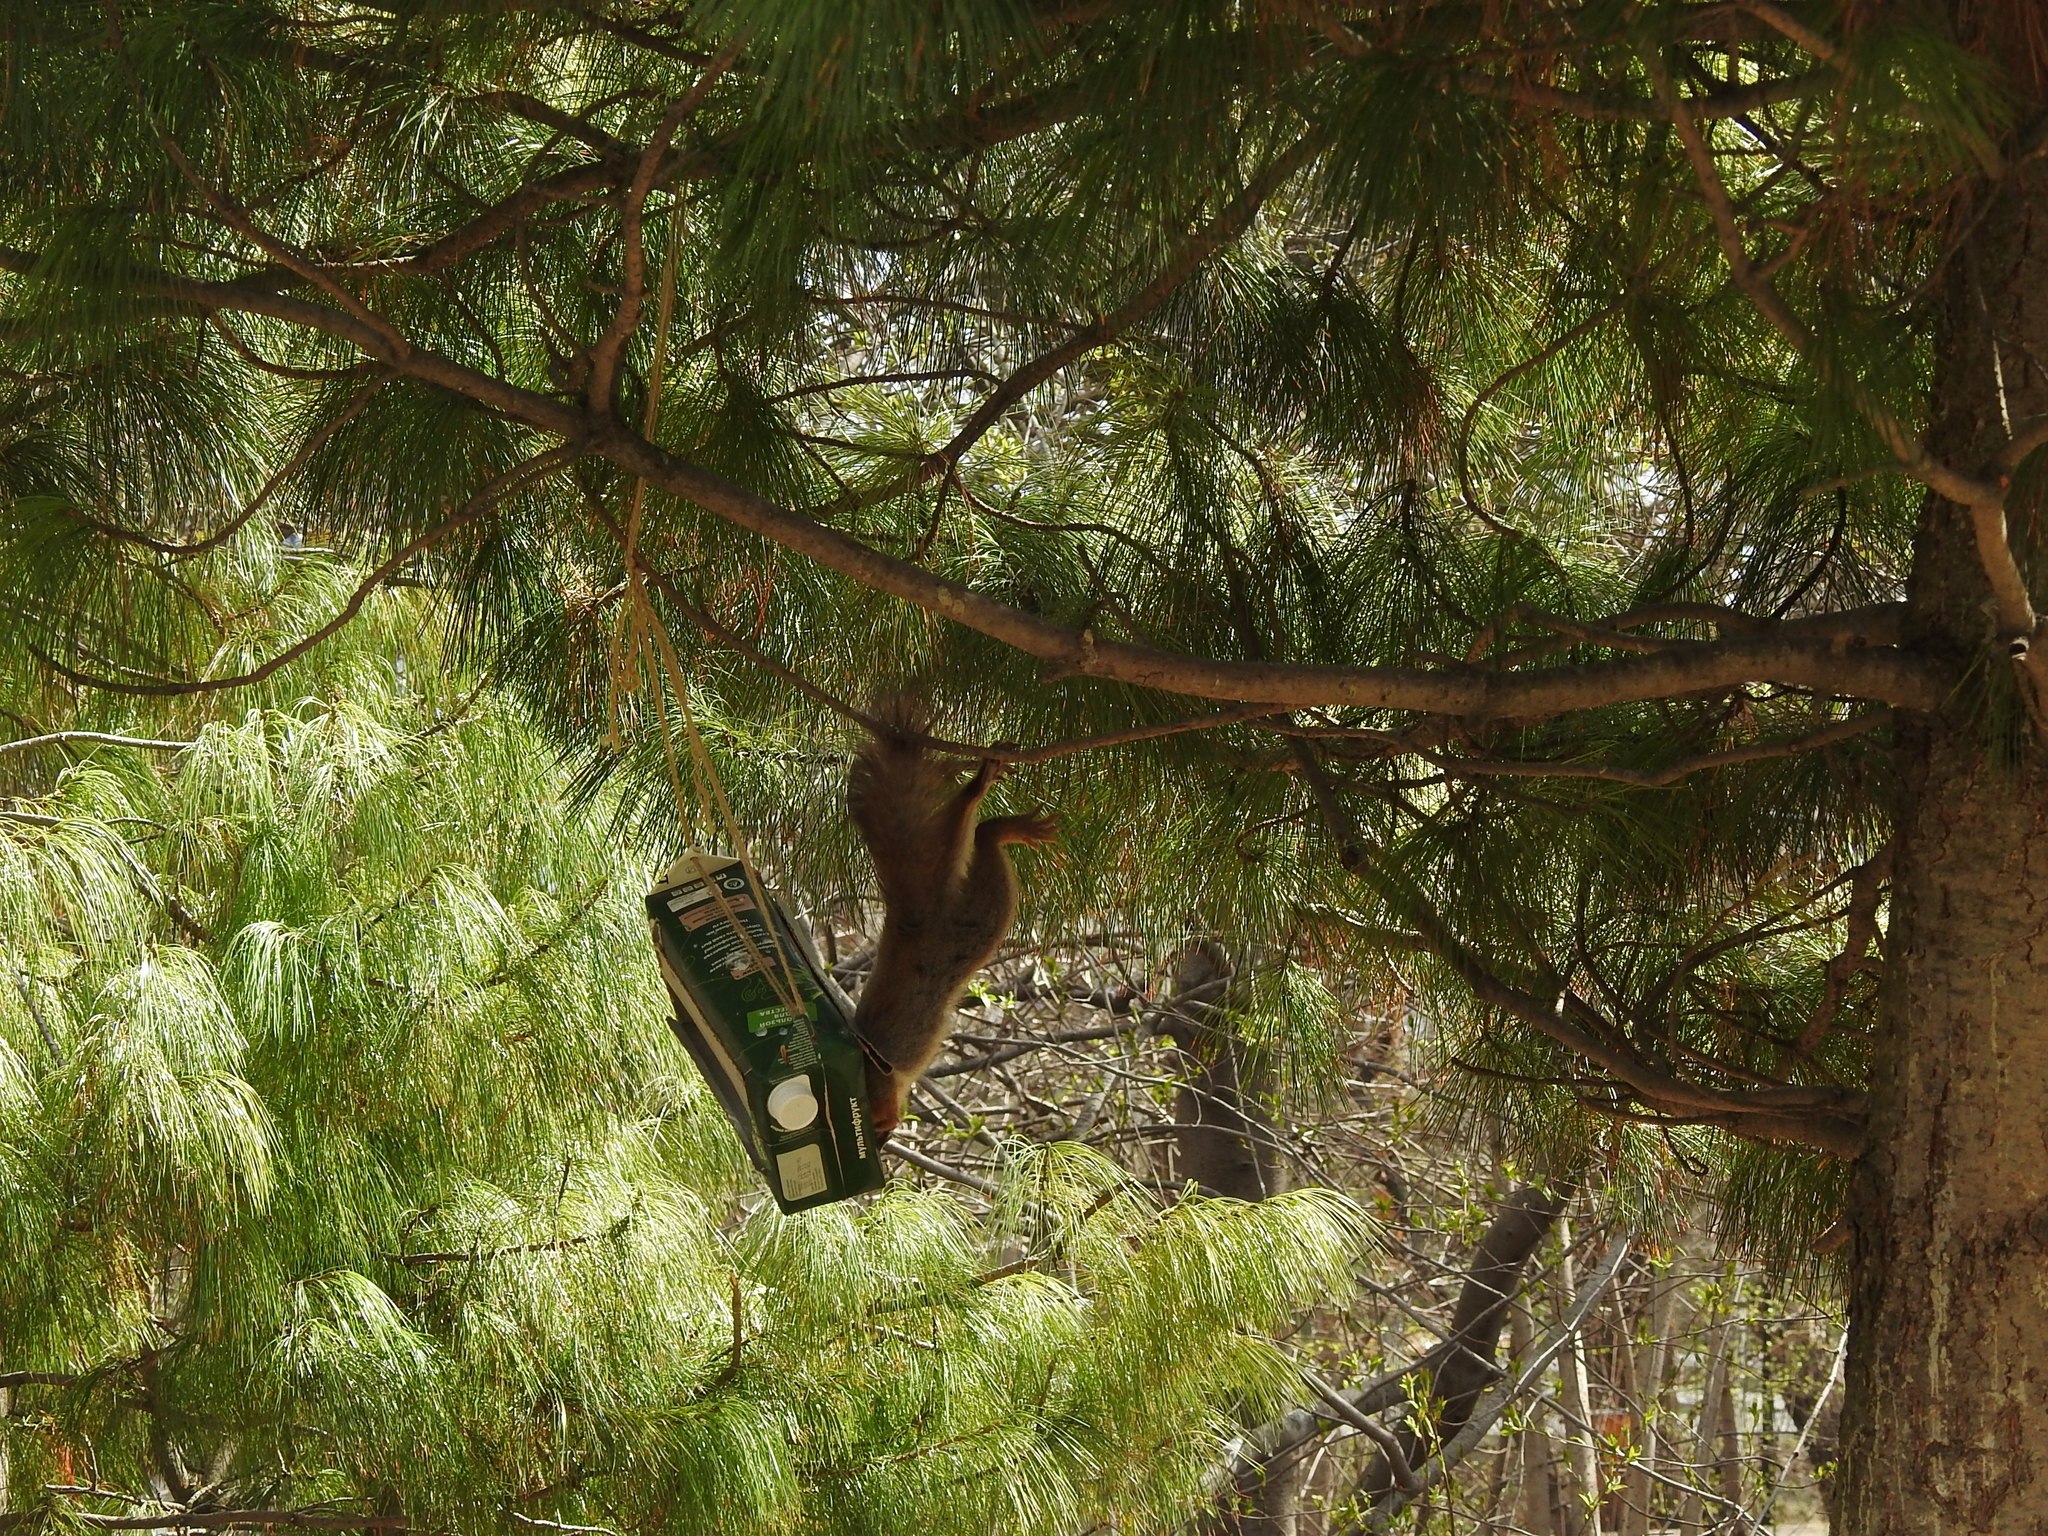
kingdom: Animalia
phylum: Chordata
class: Mammalia
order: Rodentia
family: Sciuridae
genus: Sciurus
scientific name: Sciurus vulgaris
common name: Eurasian red squirrel
